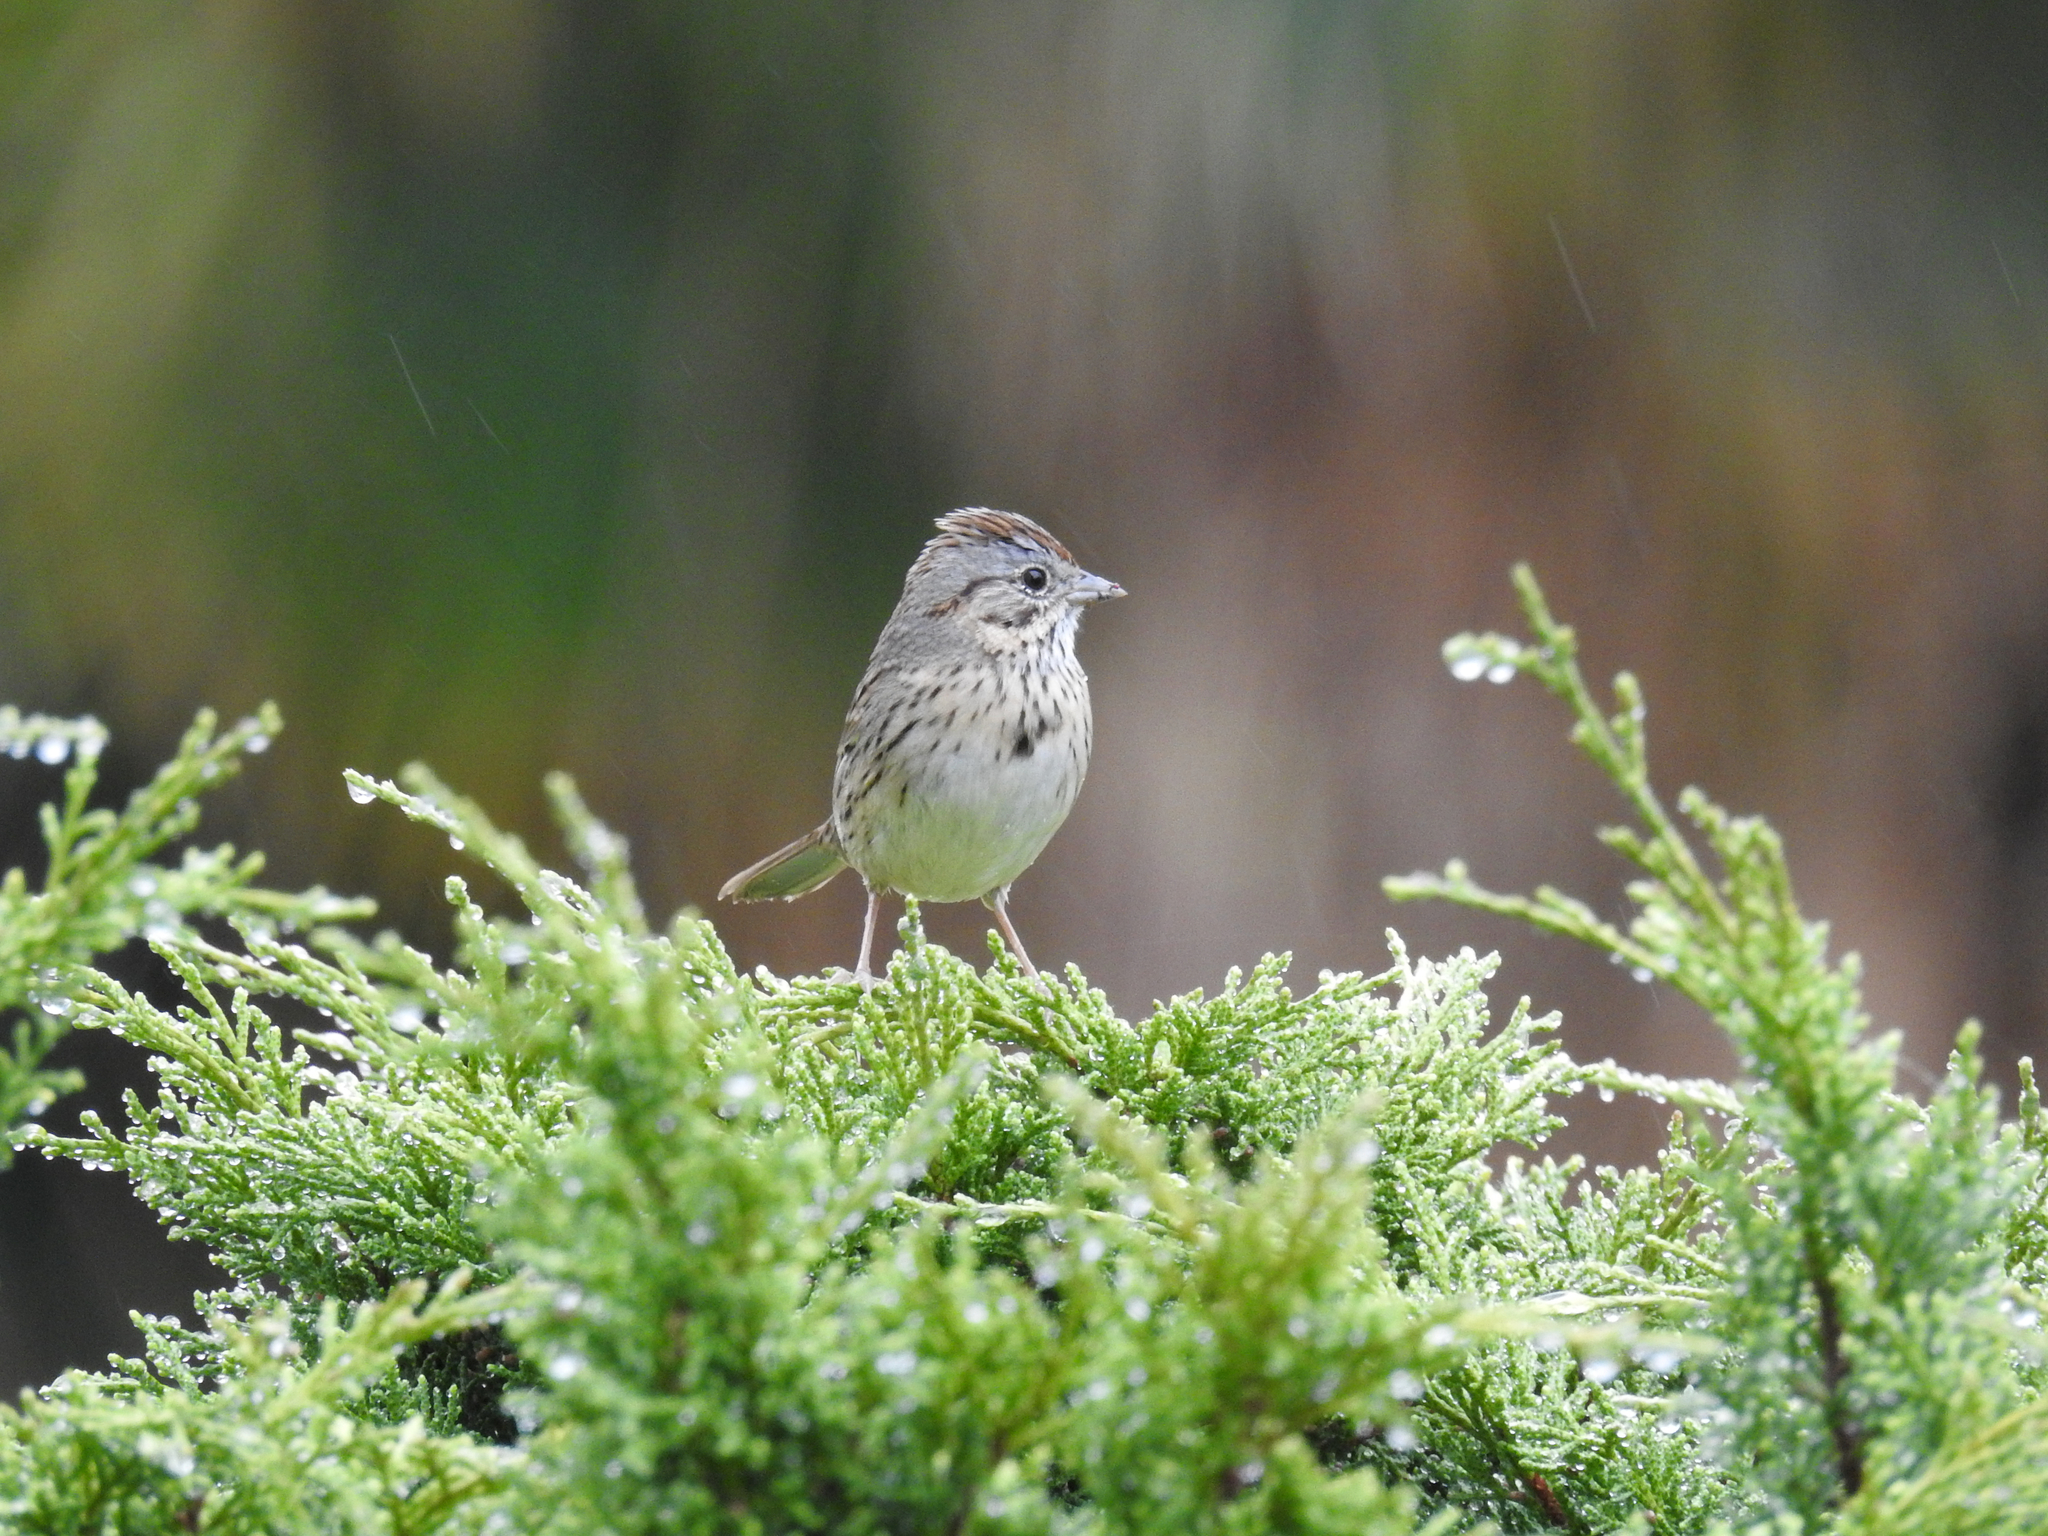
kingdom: Animalia
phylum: Chordata
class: Aves
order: Passeriformes
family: Passerellidae
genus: Melospiza
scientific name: Melospiza lincolnii
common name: Lincoln's sparrow
